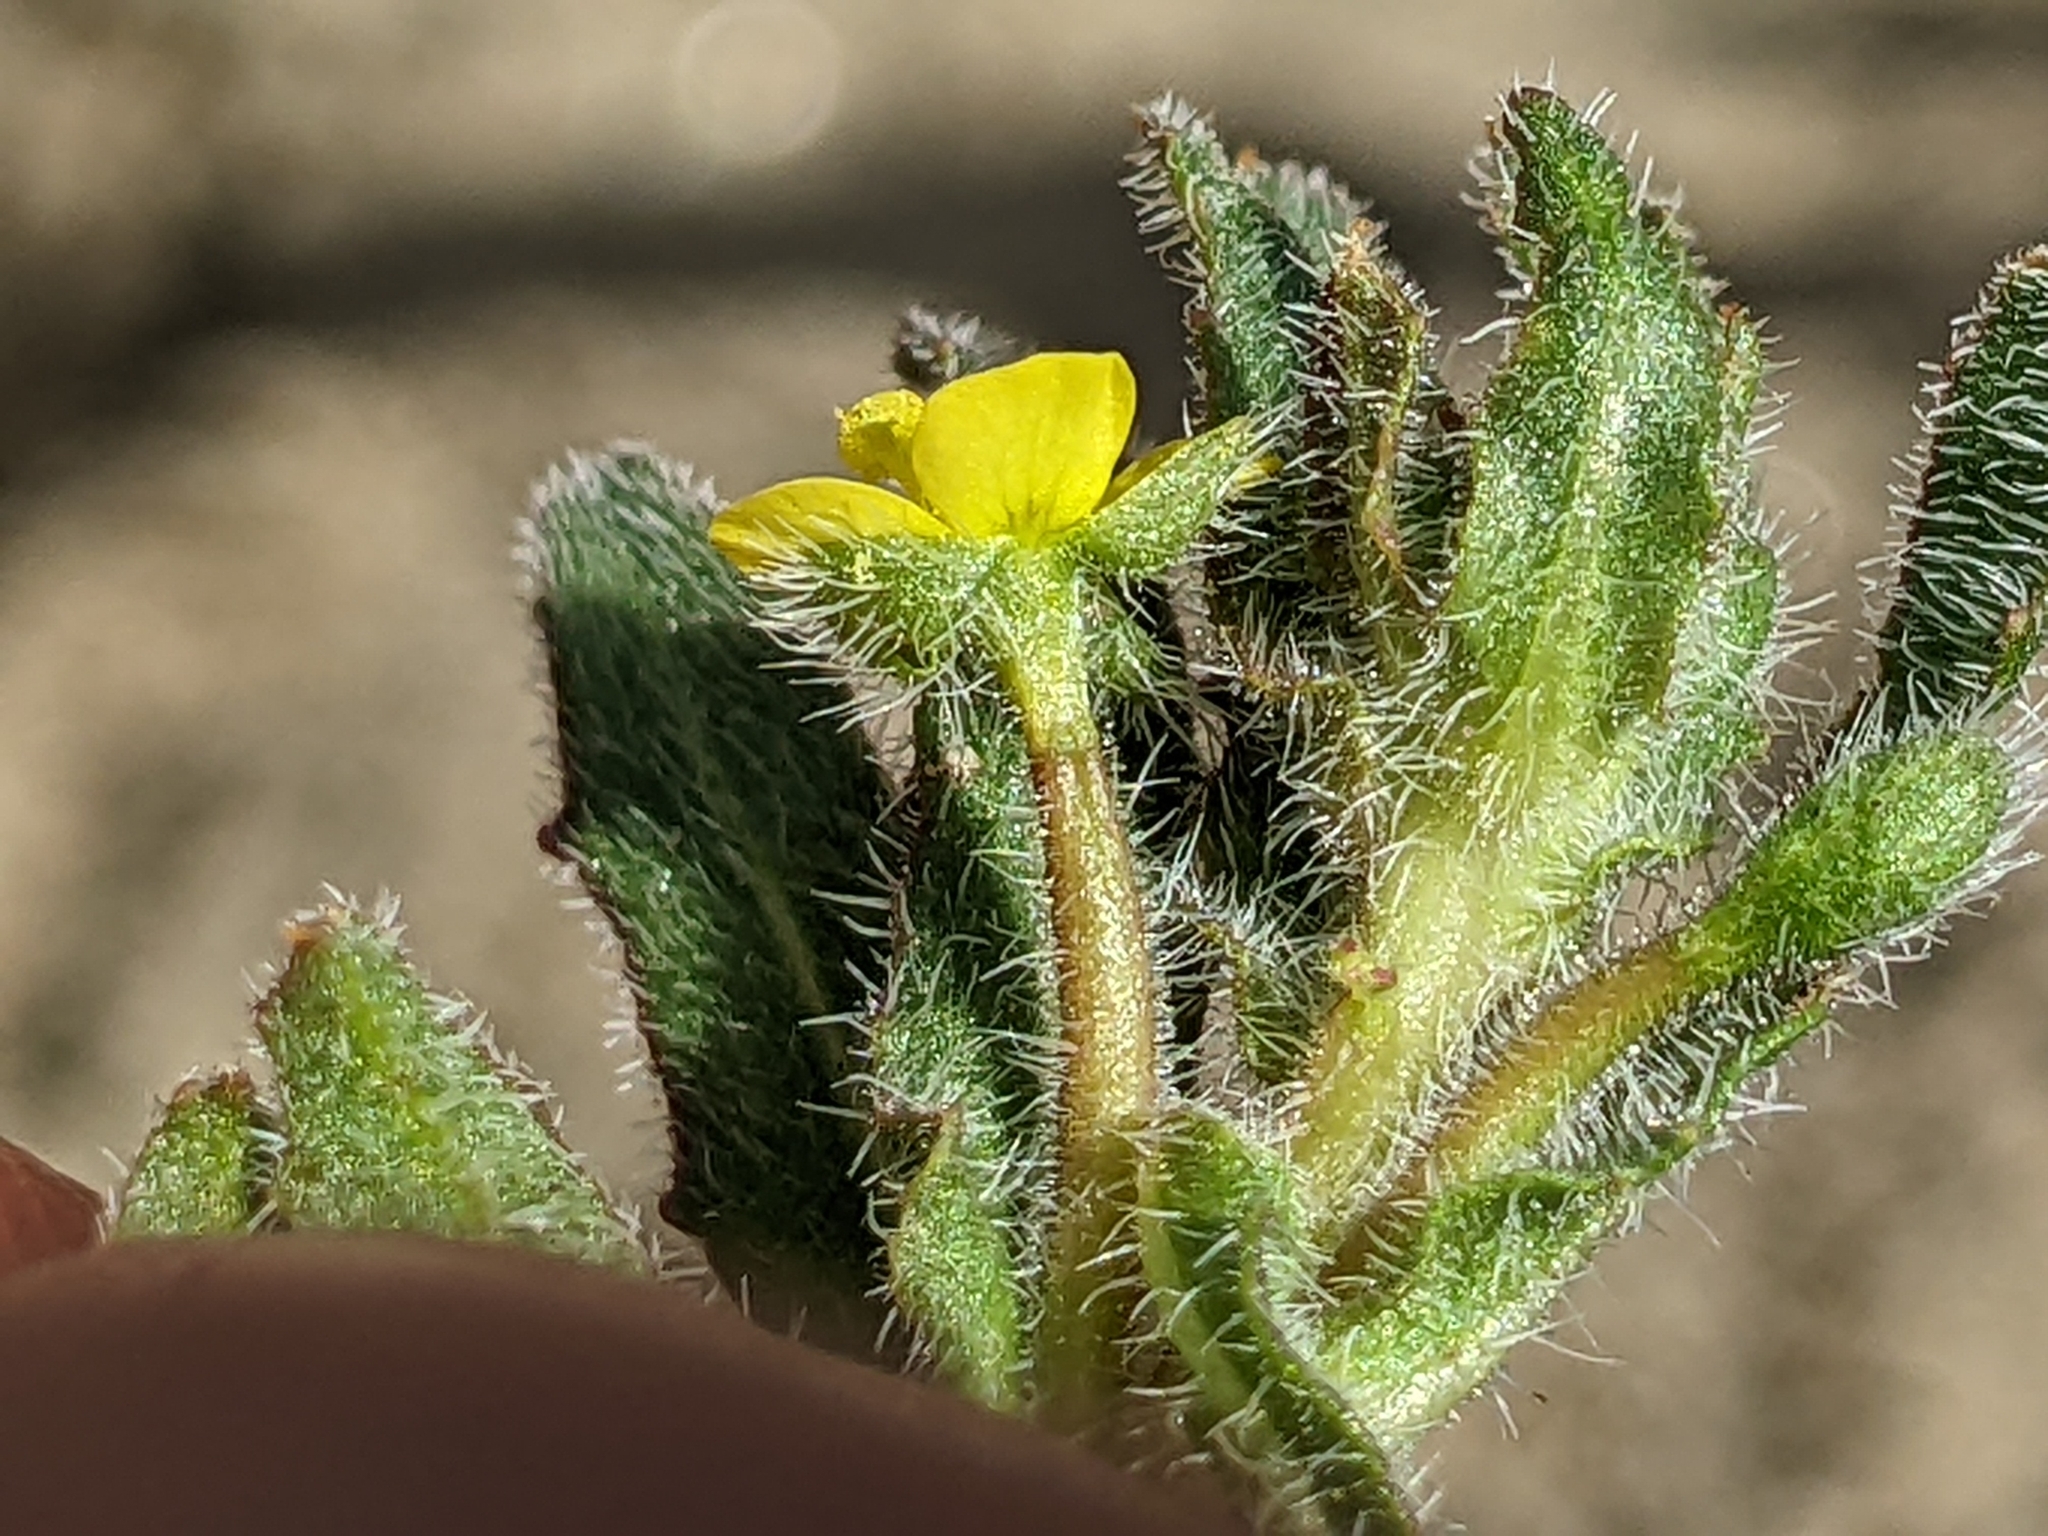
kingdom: Plantae
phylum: Tracheophyta
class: Magnoliopsida
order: Myrtales
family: Onagraceae
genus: Camissoniopsis
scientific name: Camissoniopsis micrantha
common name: Miniature suncup
